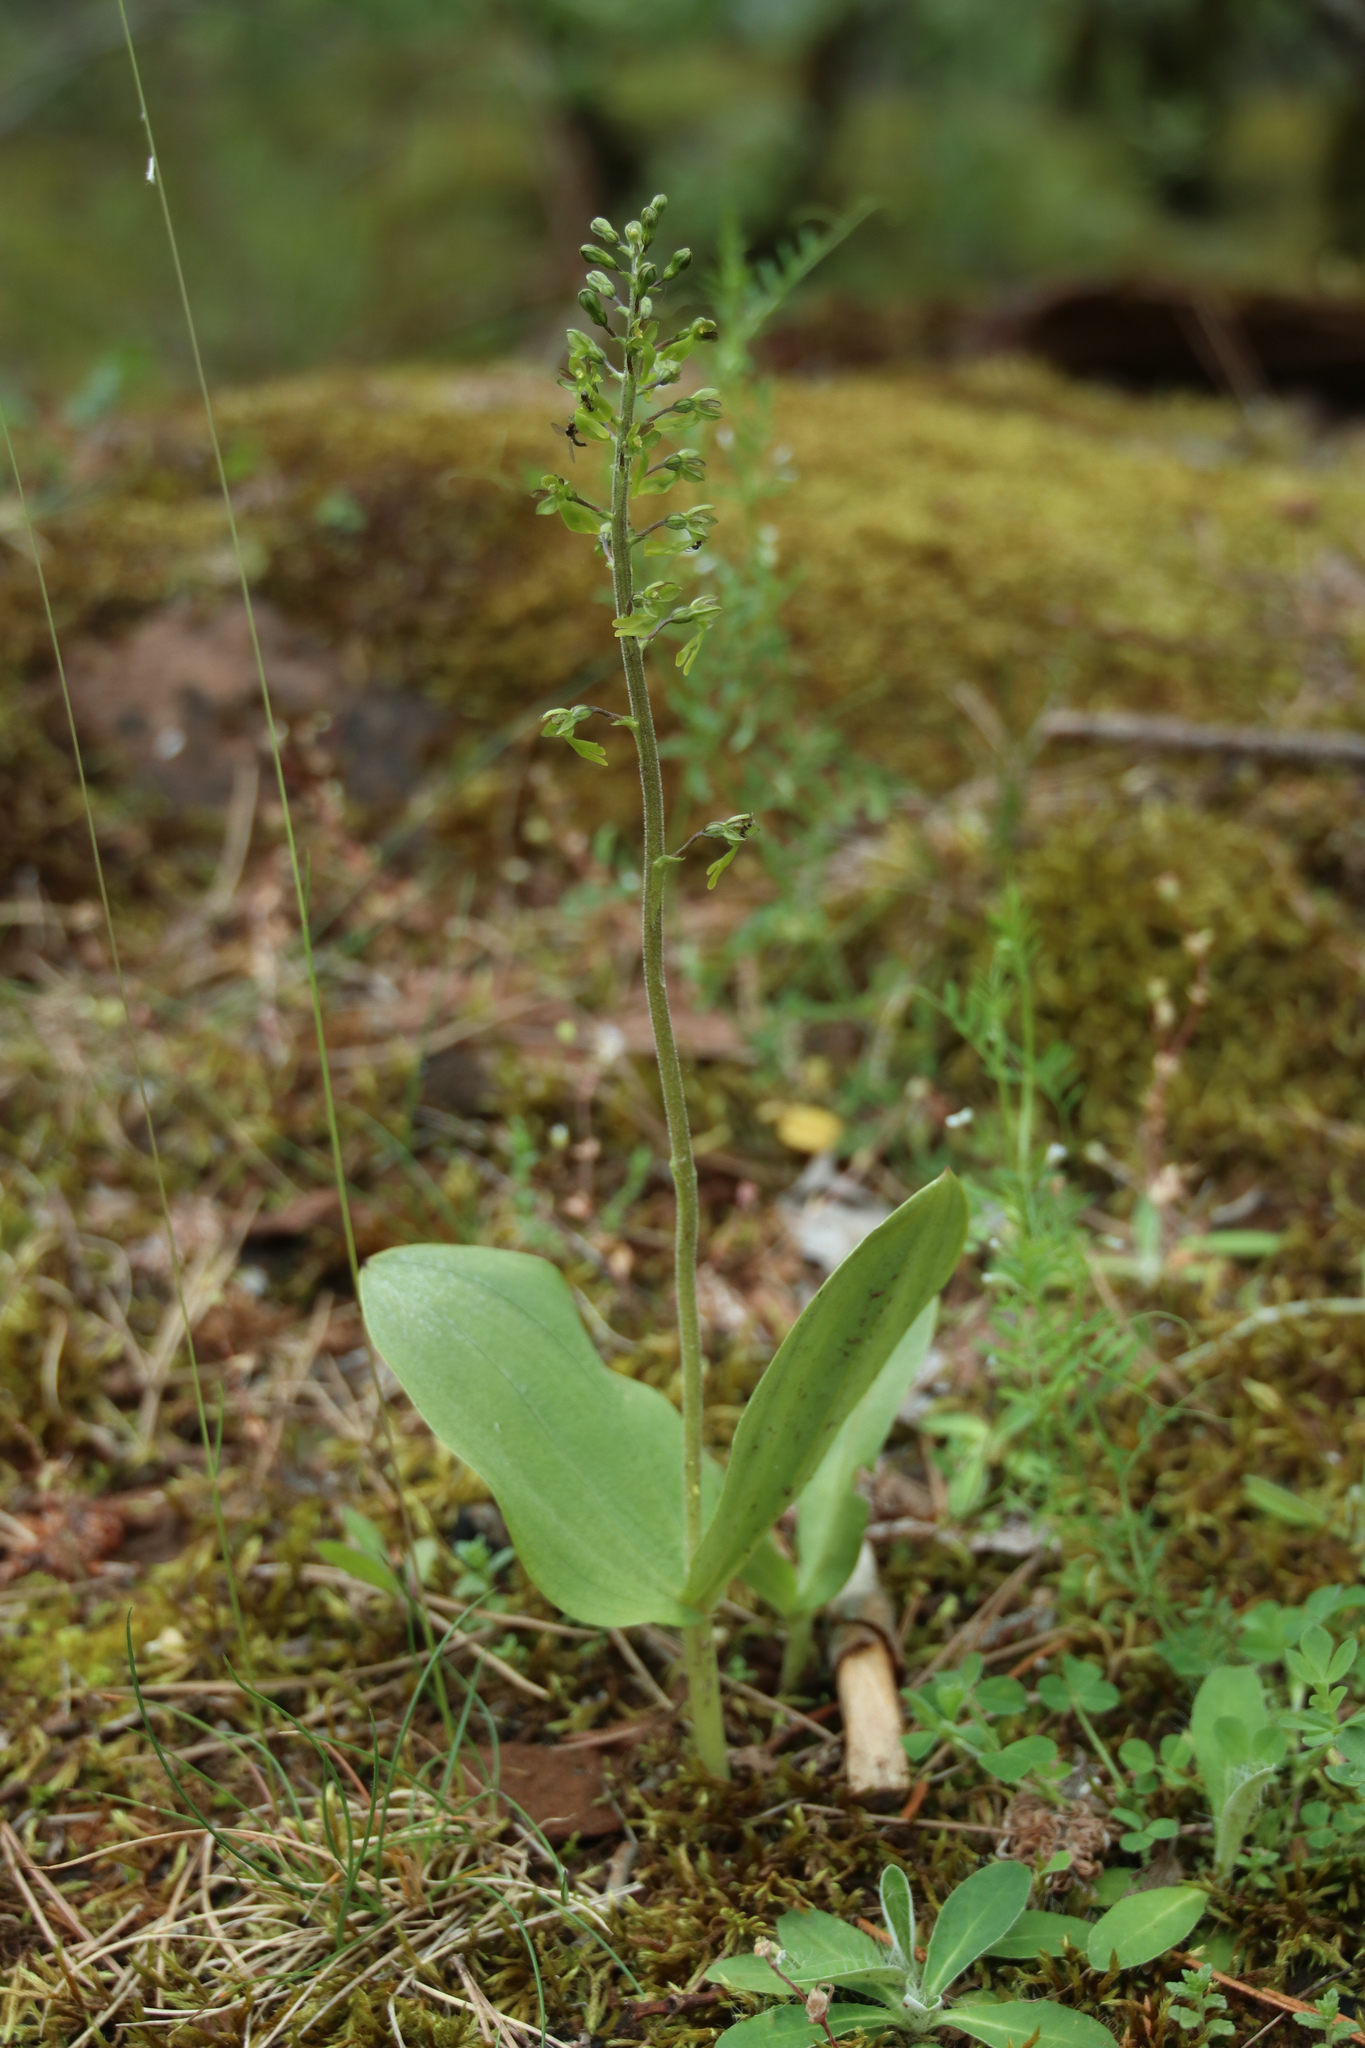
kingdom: Plantae
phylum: Tracheophyta
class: Liliopsida
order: Asparagales
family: Orchidaceae
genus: Neottia
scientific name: Neottia ovata
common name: Common twayblade
